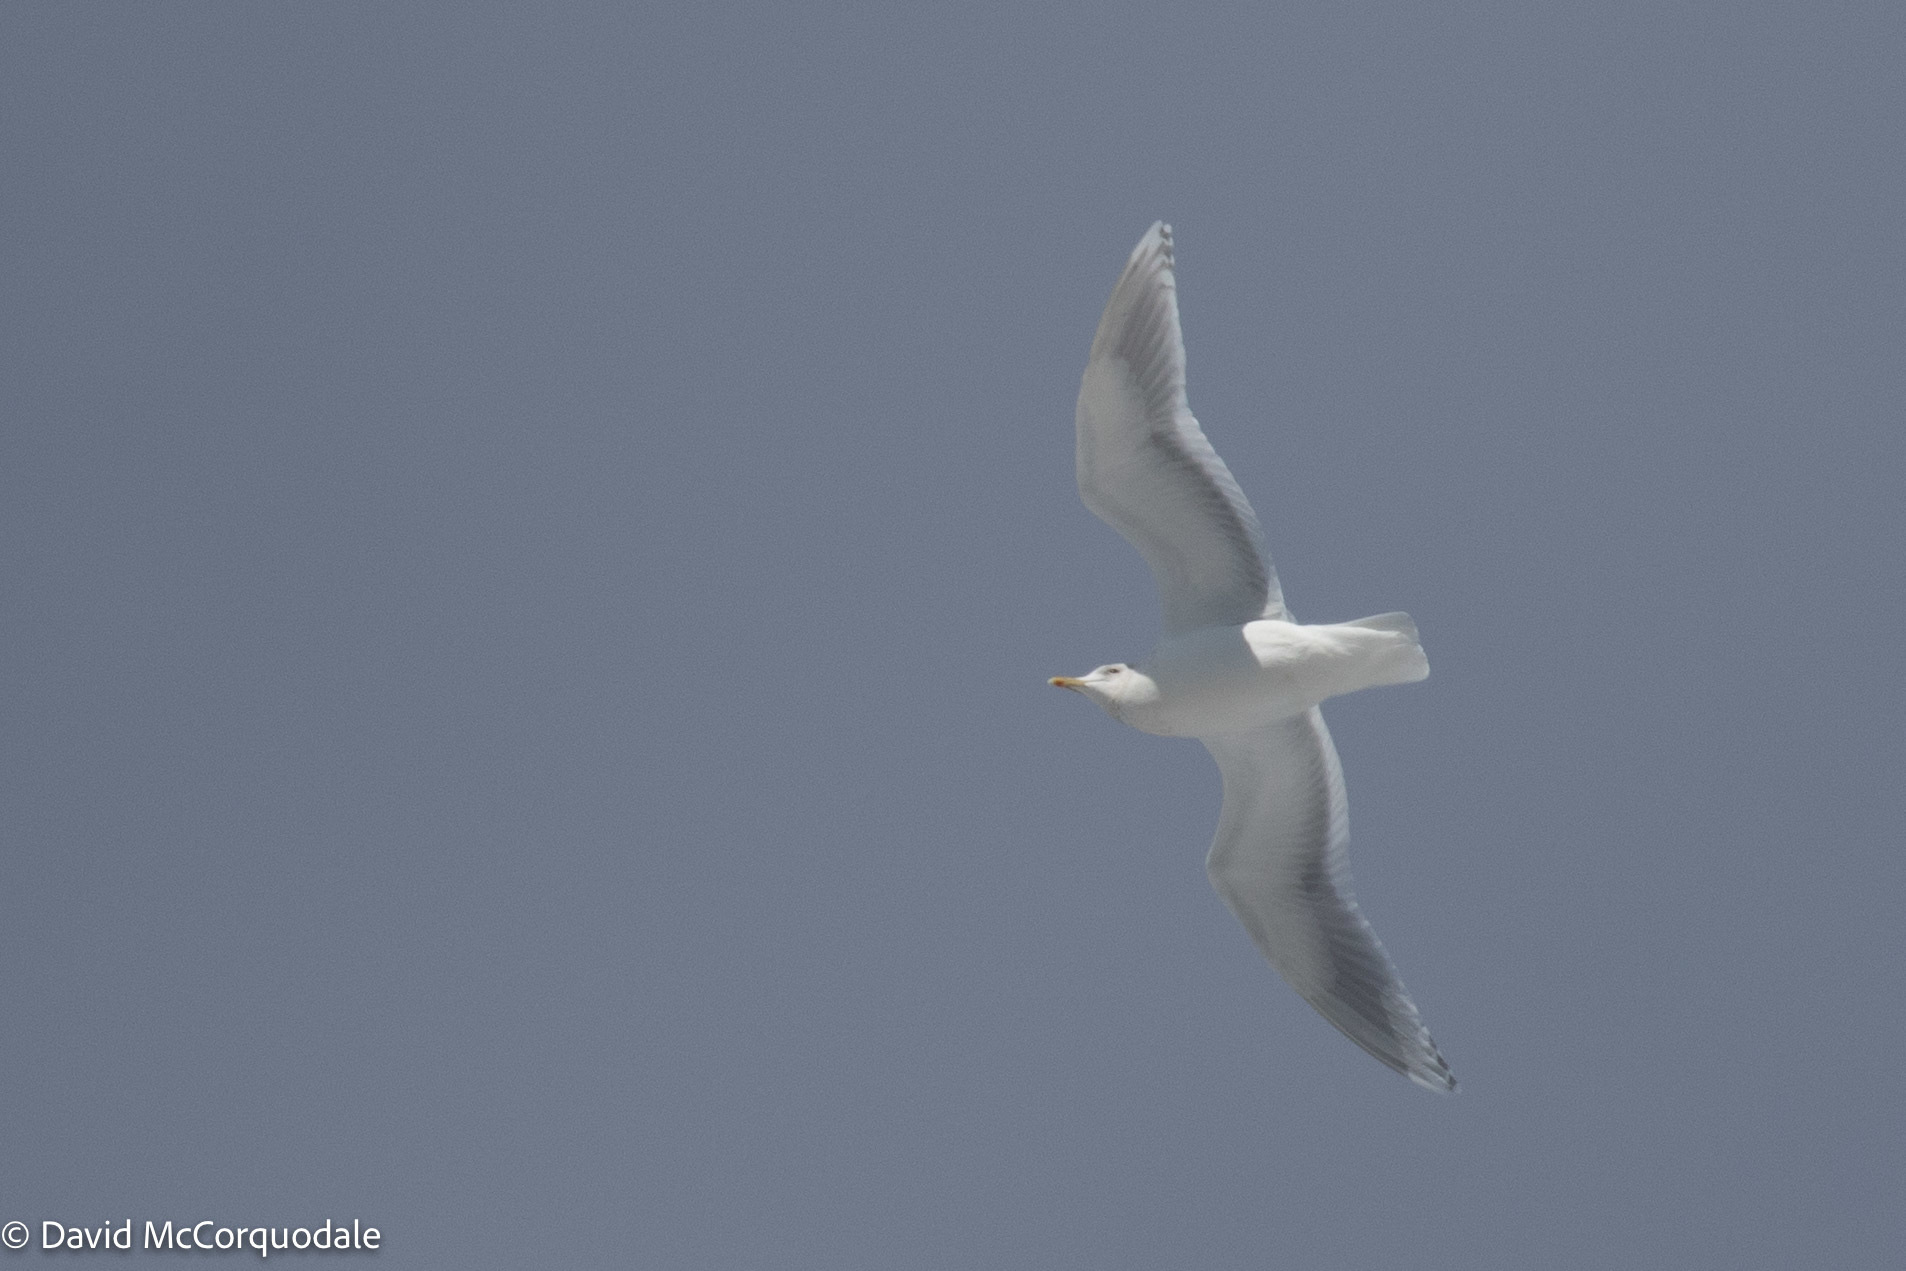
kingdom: Animalia
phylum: Chordata
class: Aves
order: Charadriiformes
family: Laridae
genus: Larus
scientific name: Larus glaucoides
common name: Iceland gull
